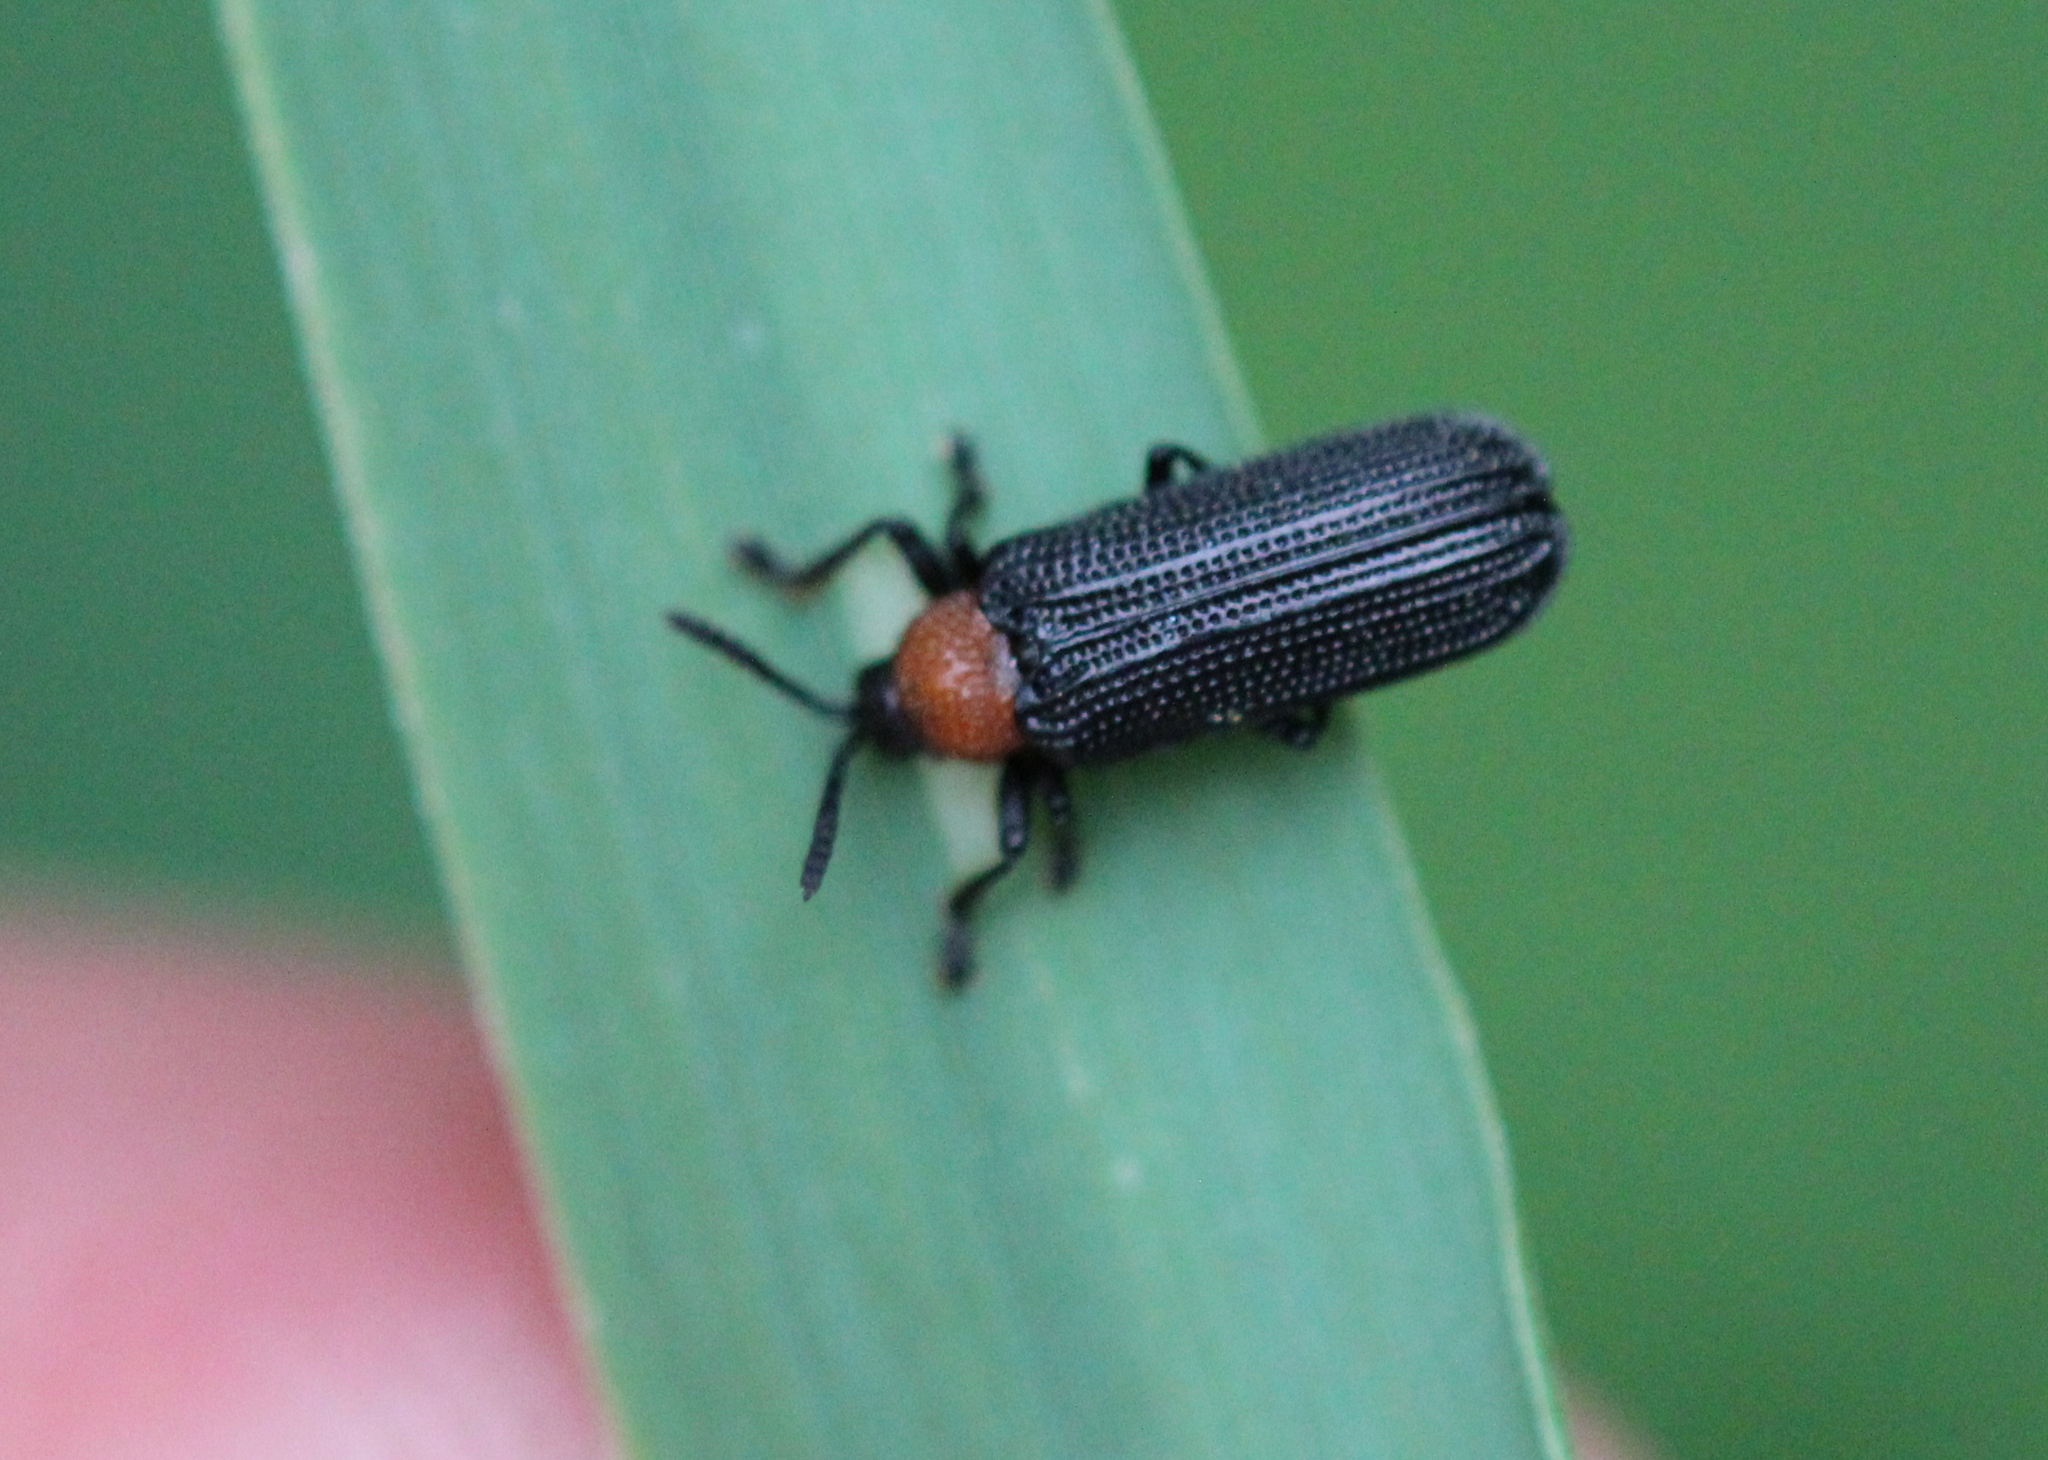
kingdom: Animalia
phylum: Arthropoda
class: Insecta
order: Coleoptera
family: Chrysomelidae
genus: Chalepus
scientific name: Chalepus walshii
